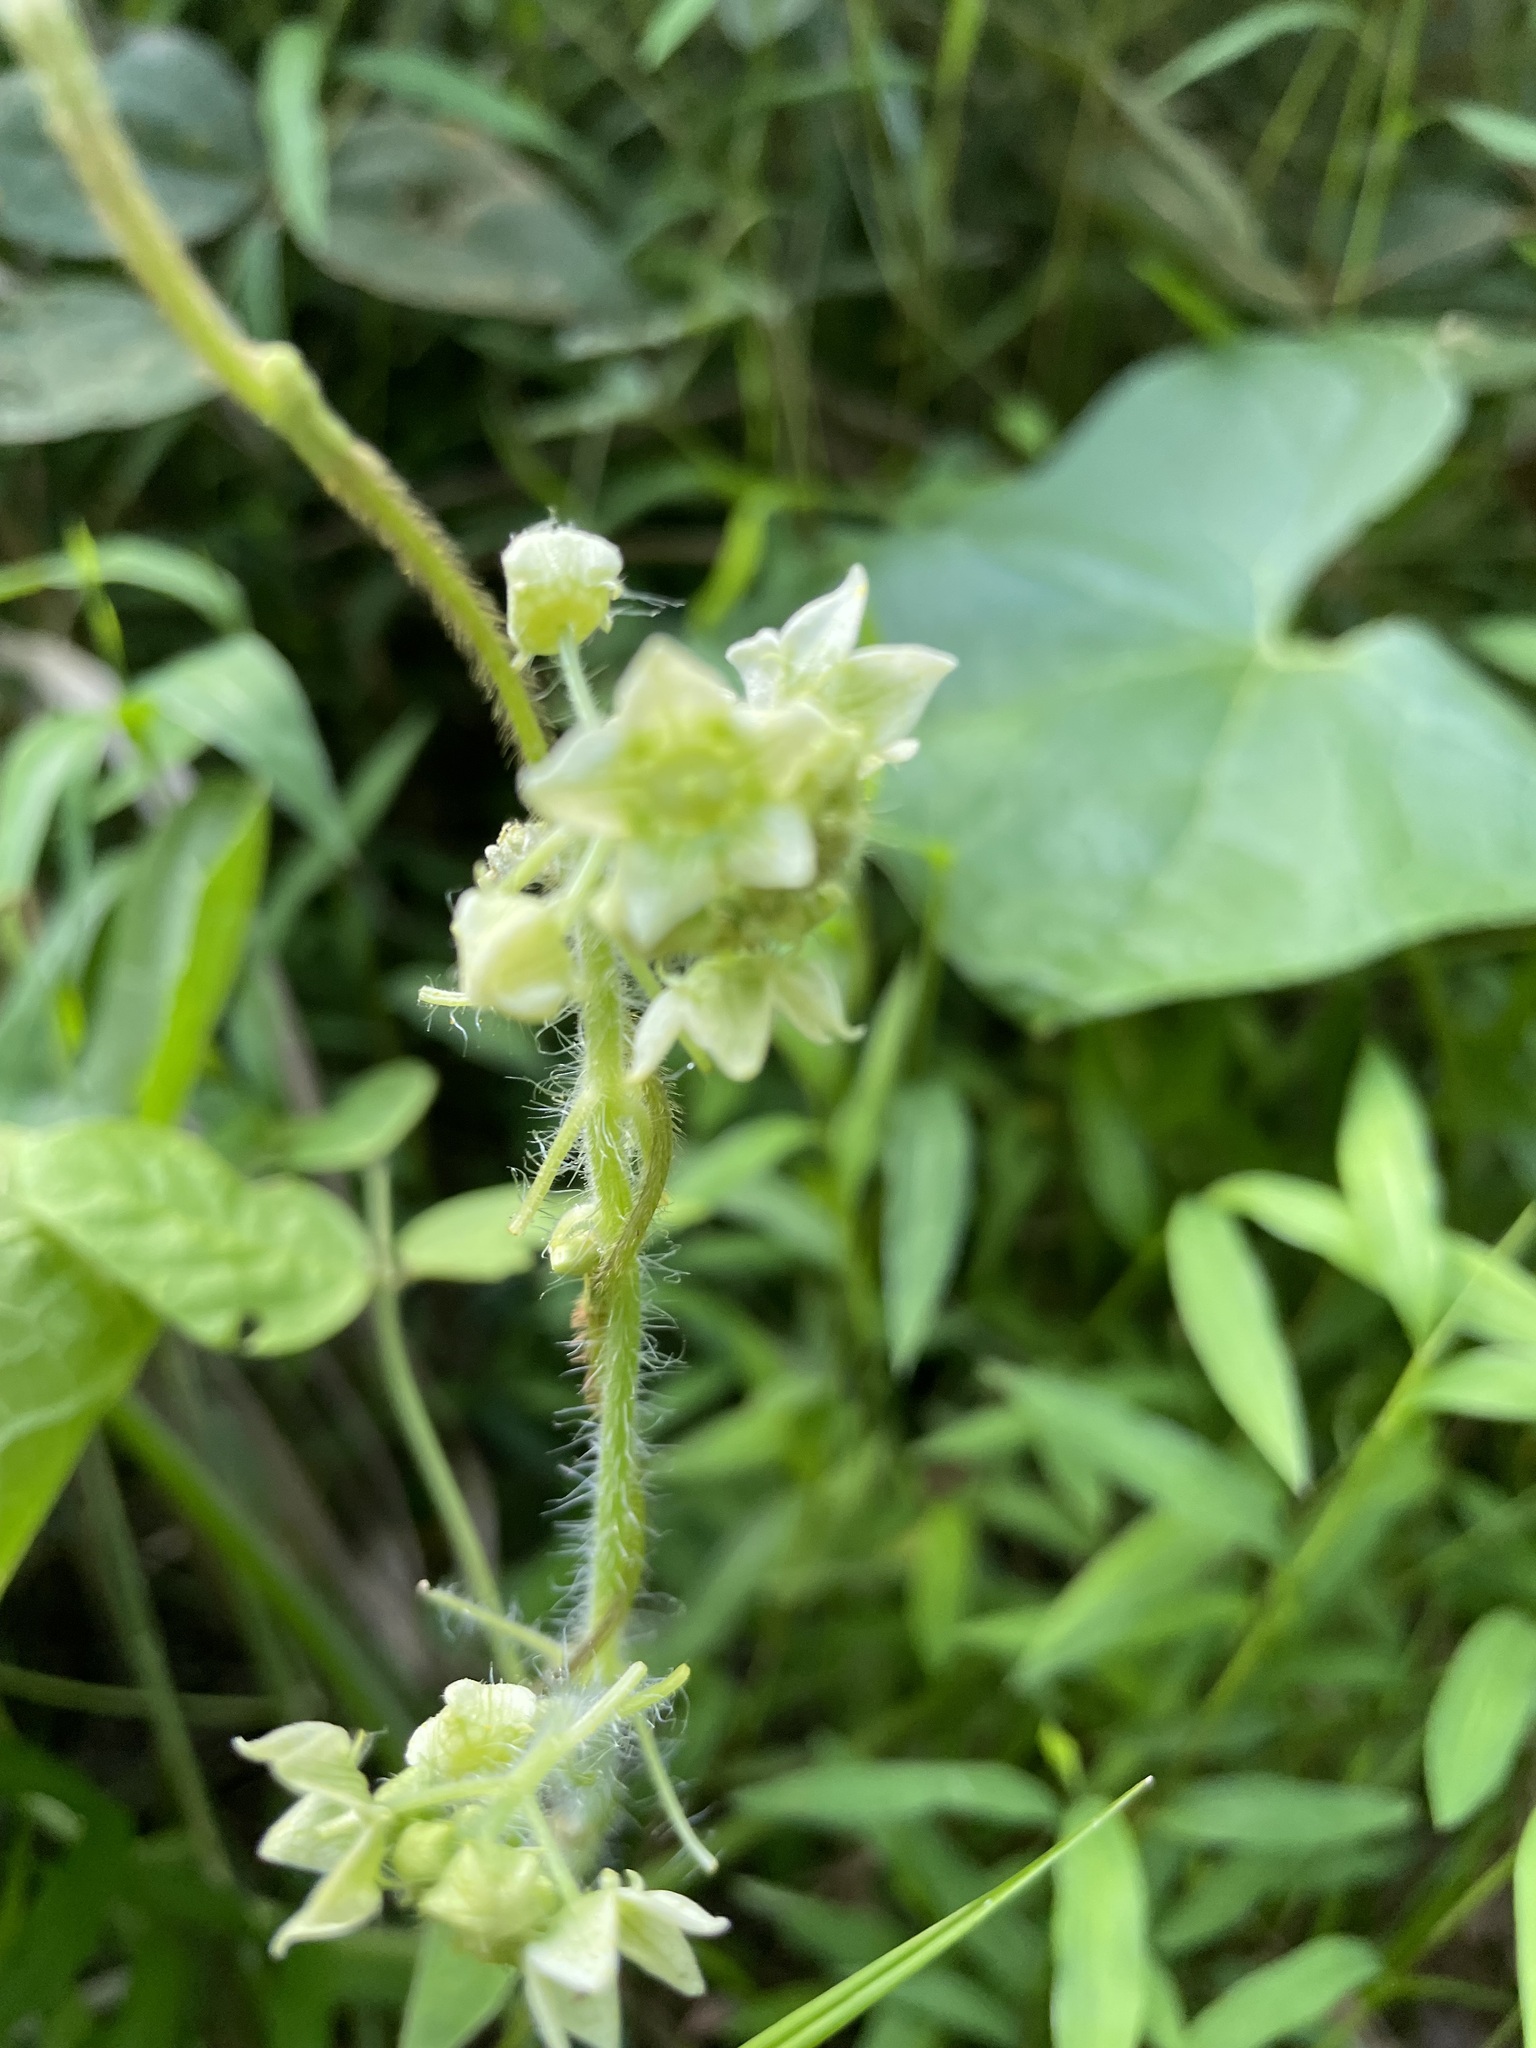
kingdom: Plantae
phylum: Tracheophyta
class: Magnoliopsida
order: Cucurbitales
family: Cucurbitaceae
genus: Sicyos
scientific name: Sicyos angulatus
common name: Angled burr cucumber
